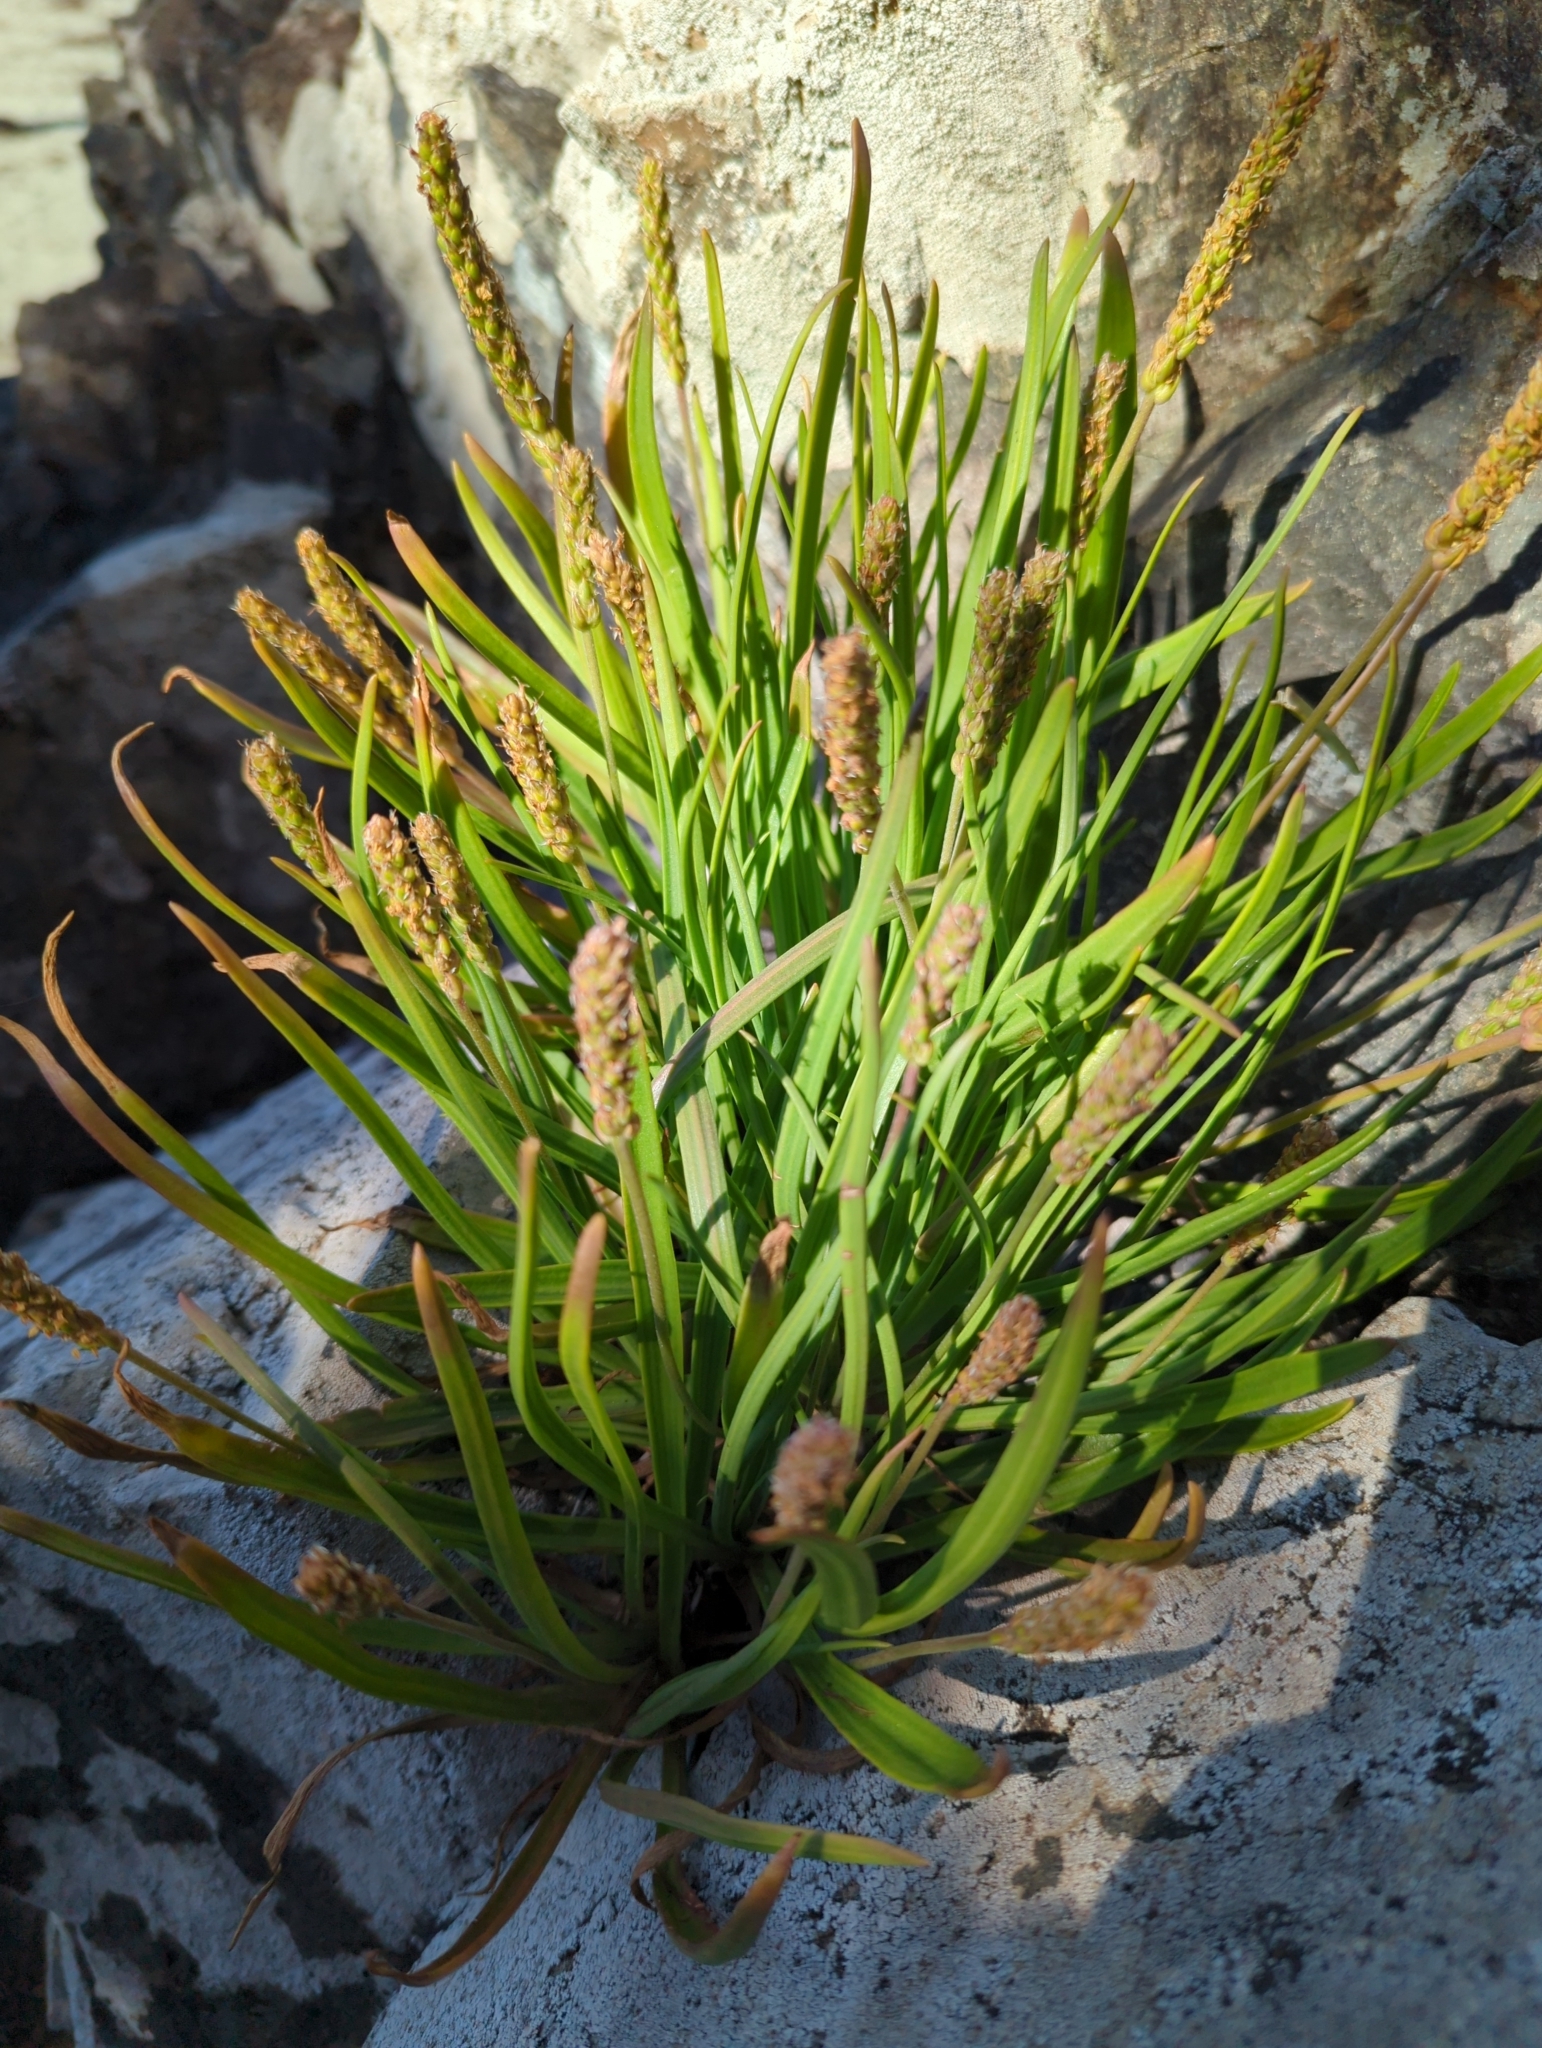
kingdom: Plantae
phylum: Tracheophyta
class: Magnoliopsida
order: Lamiales
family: Plantaginaceae
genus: Plantago
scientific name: Plantago maritima
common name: Sea plantain
